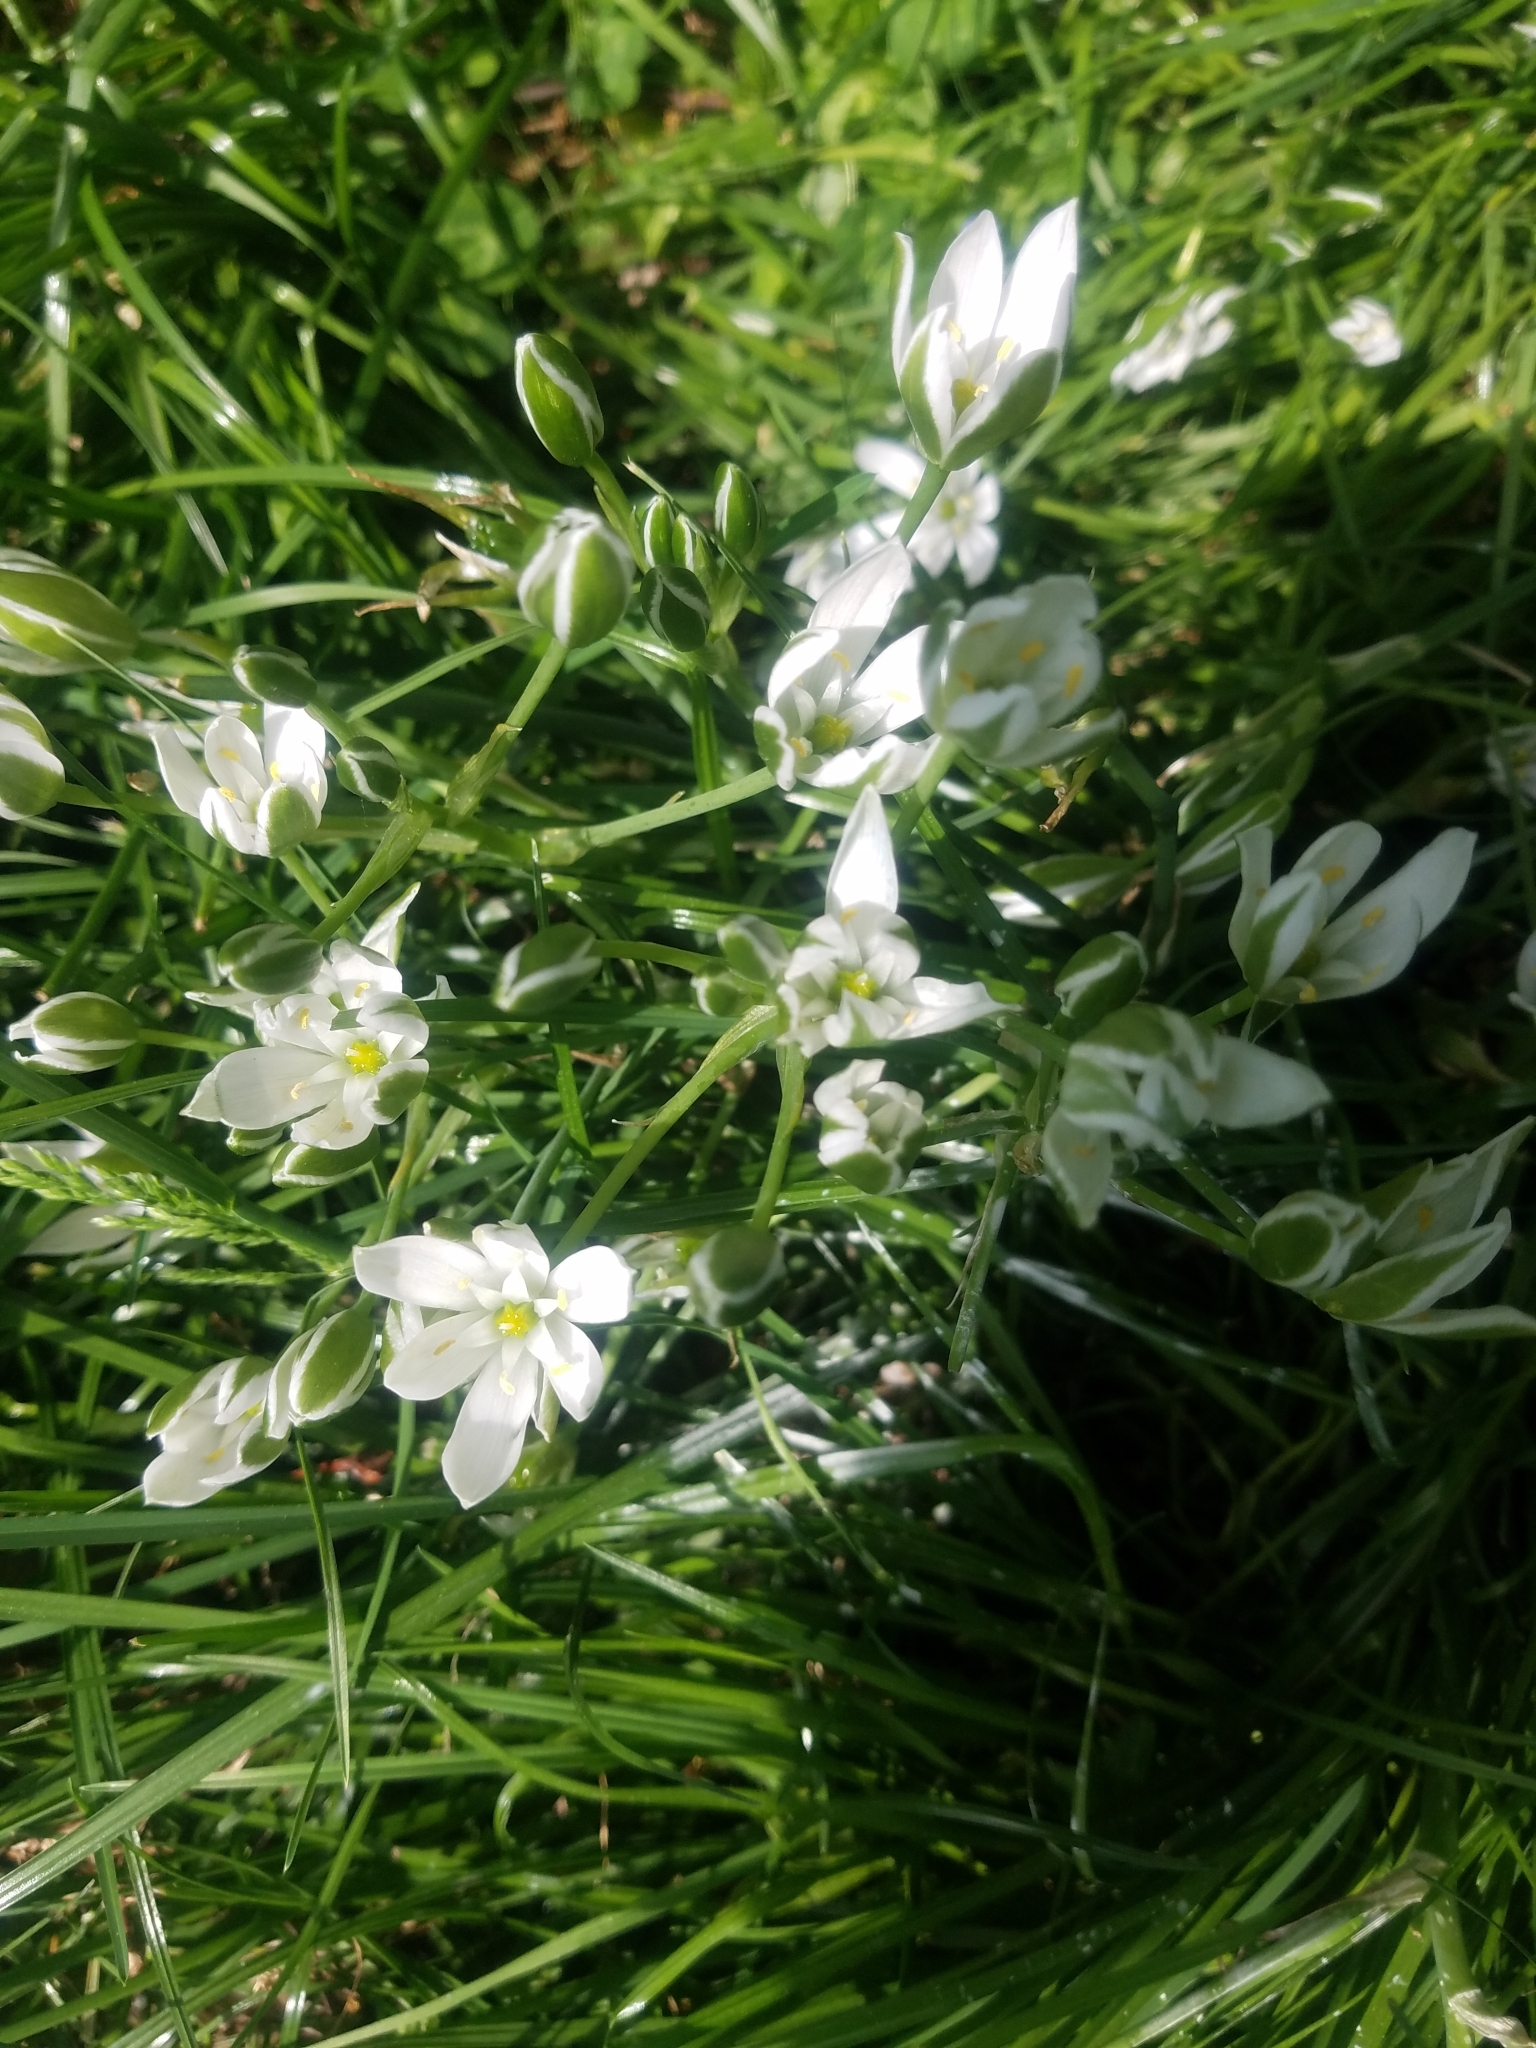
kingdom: Plantae
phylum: Tracheophyta
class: Liliopsida
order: Asparagales
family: Asparagaceae
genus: Ornithogalum
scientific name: Ornithogalum umbellatum
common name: Garden star-of-bethlehem
